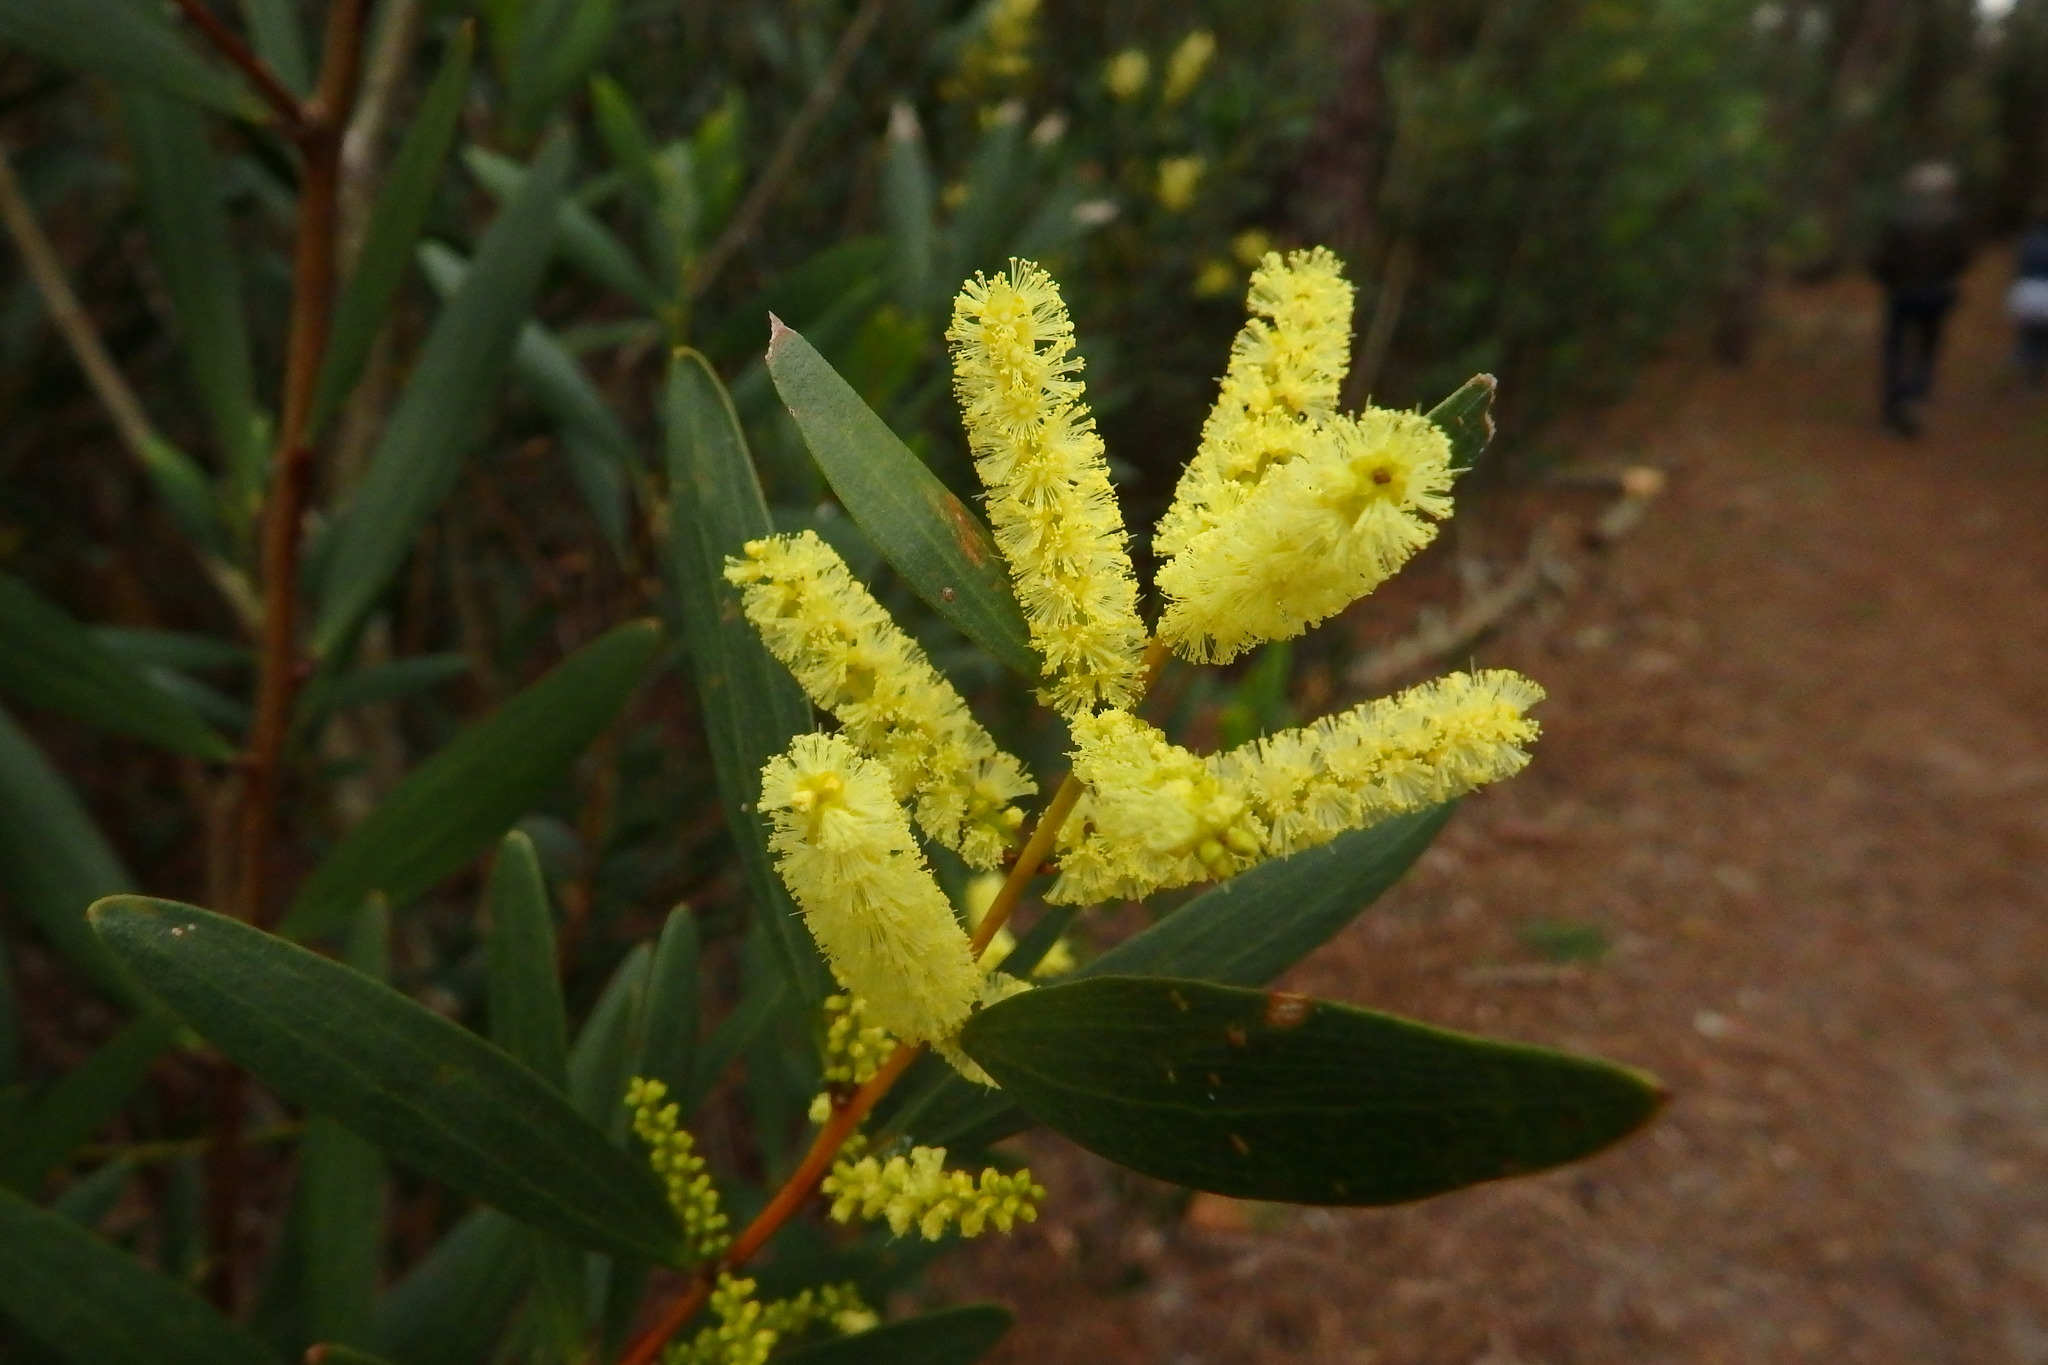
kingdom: Plantae
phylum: Tracheophyta
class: Magnoliopsida
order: Fabales
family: Fabaceae
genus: Acacia
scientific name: Acacia longifolia
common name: Sydney golden wattle
